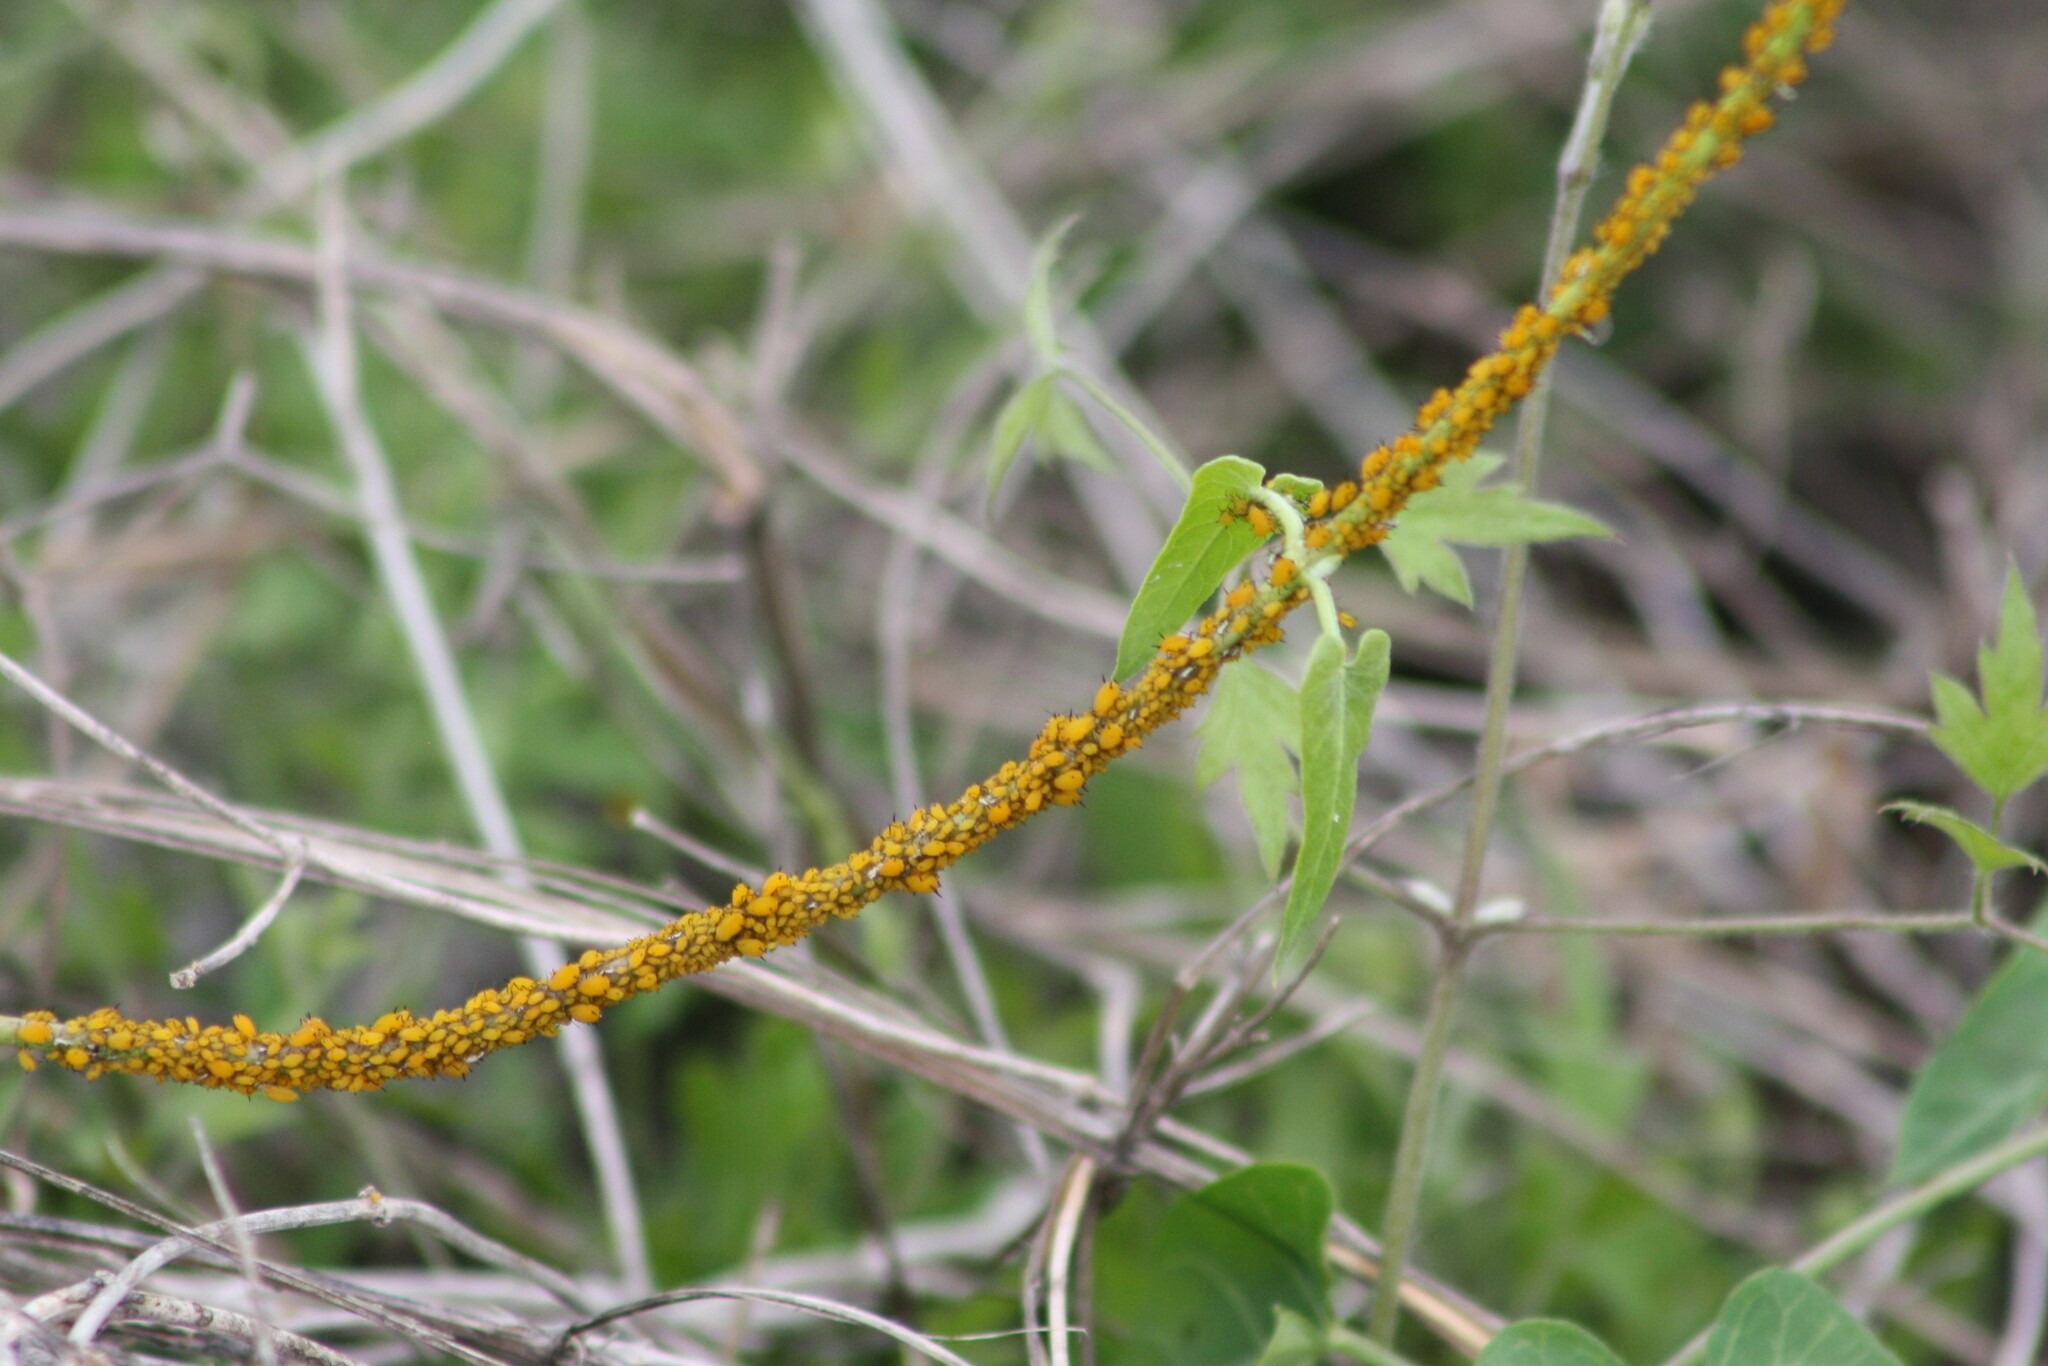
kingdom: Animalia
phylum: Arthropoda
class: Insecta
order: Hemiptera
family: Aphididae
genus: Aphis
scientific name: Aphis nerii
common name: Oleander aphid
